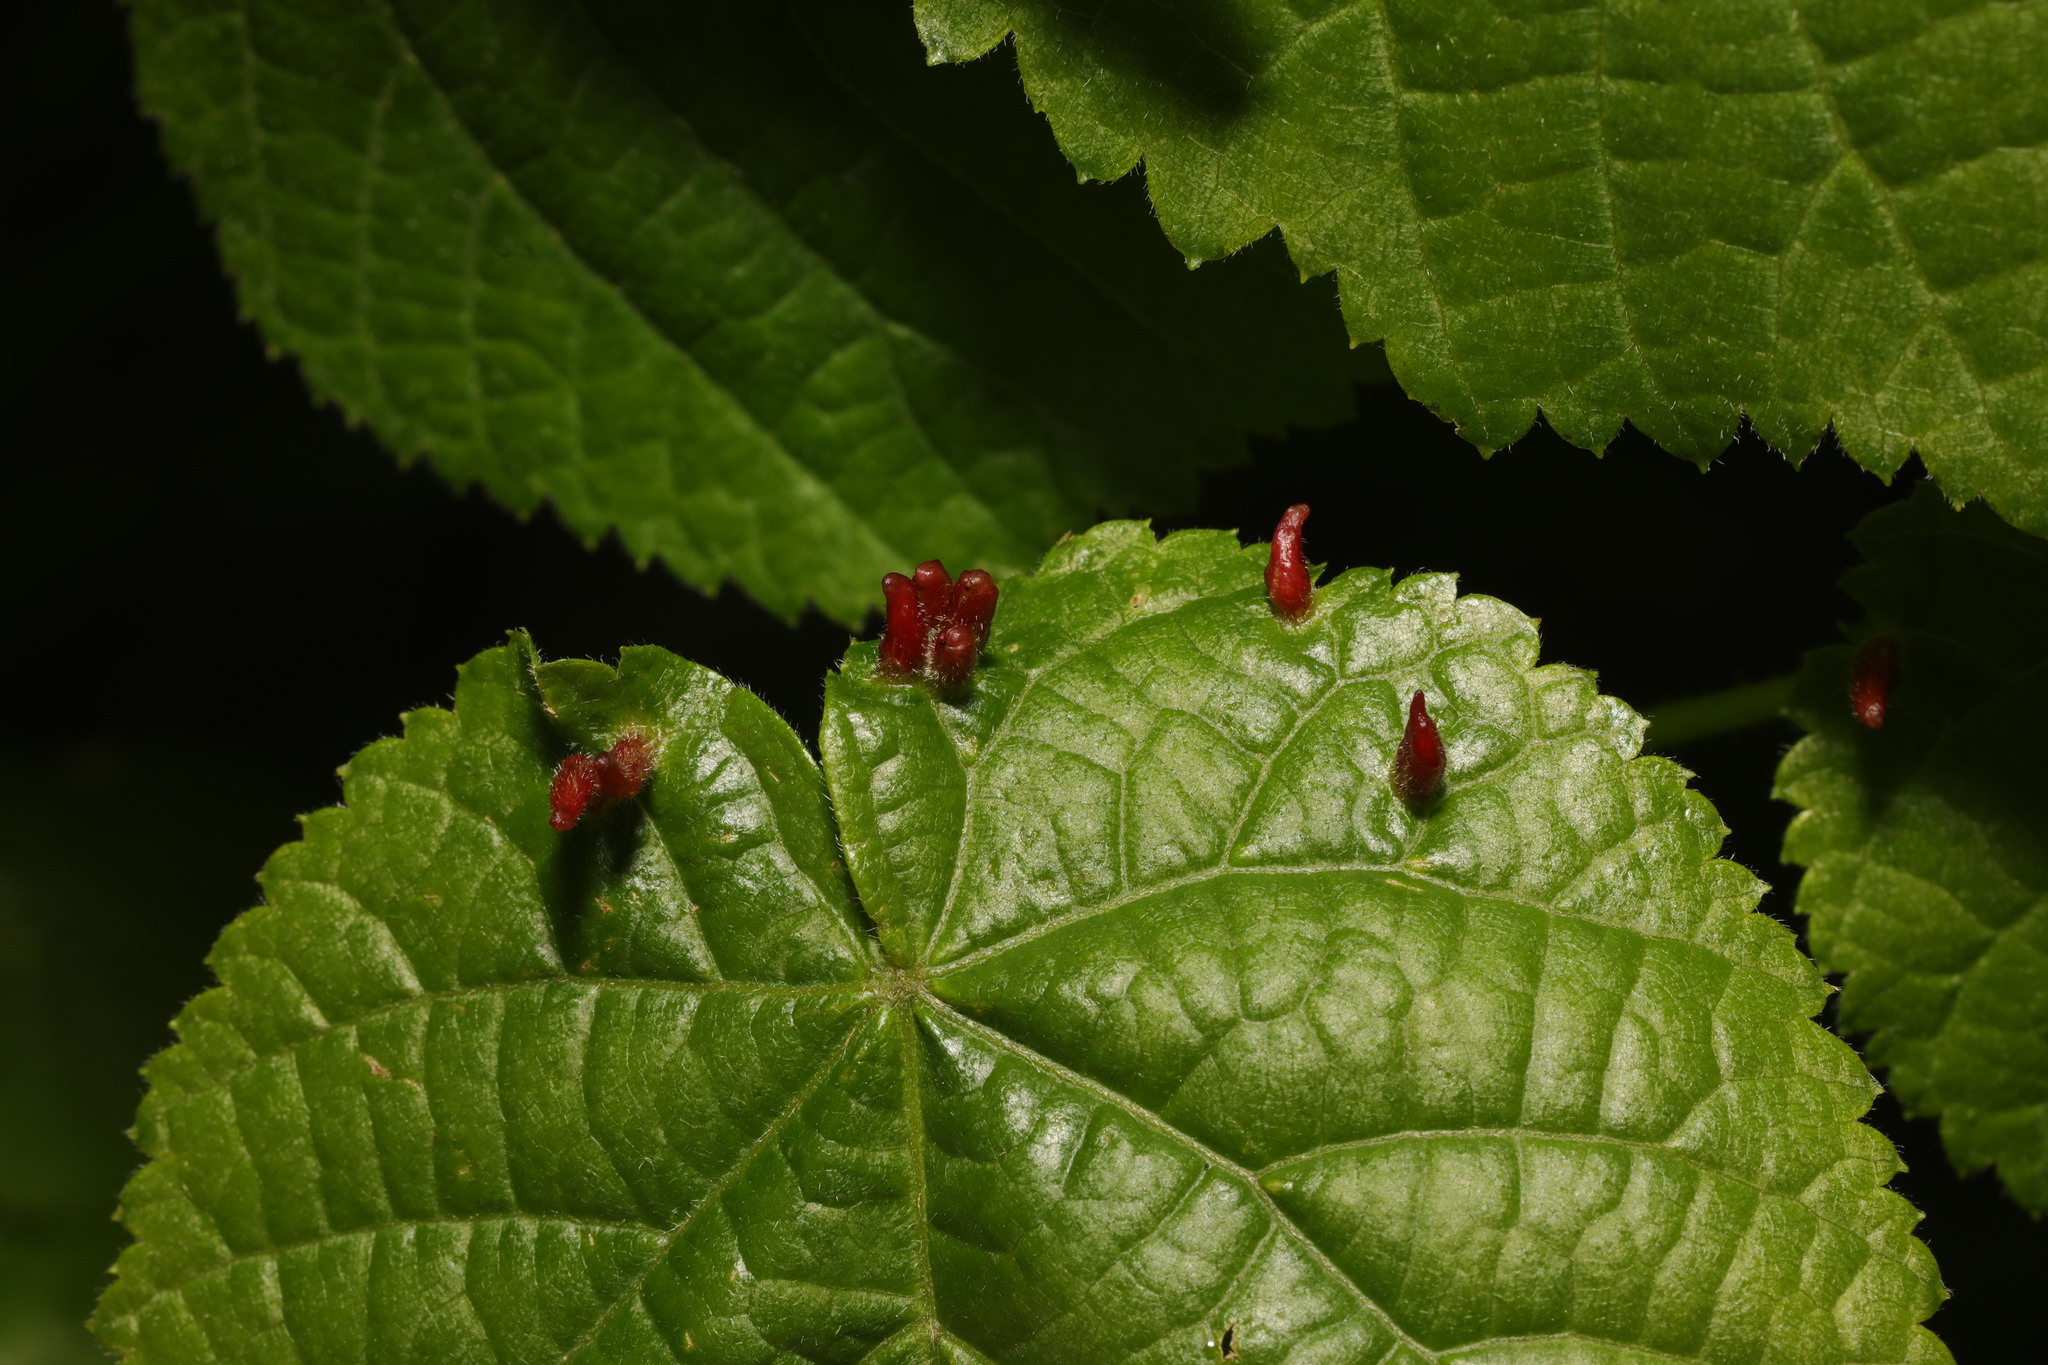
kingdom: Animalia
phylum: Arthropoda
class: Arachnida
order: Trombidiformes
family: Eriophyidae
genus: Eriophyes
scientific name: Eriophyes tiliae
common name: Red nail gall mite
